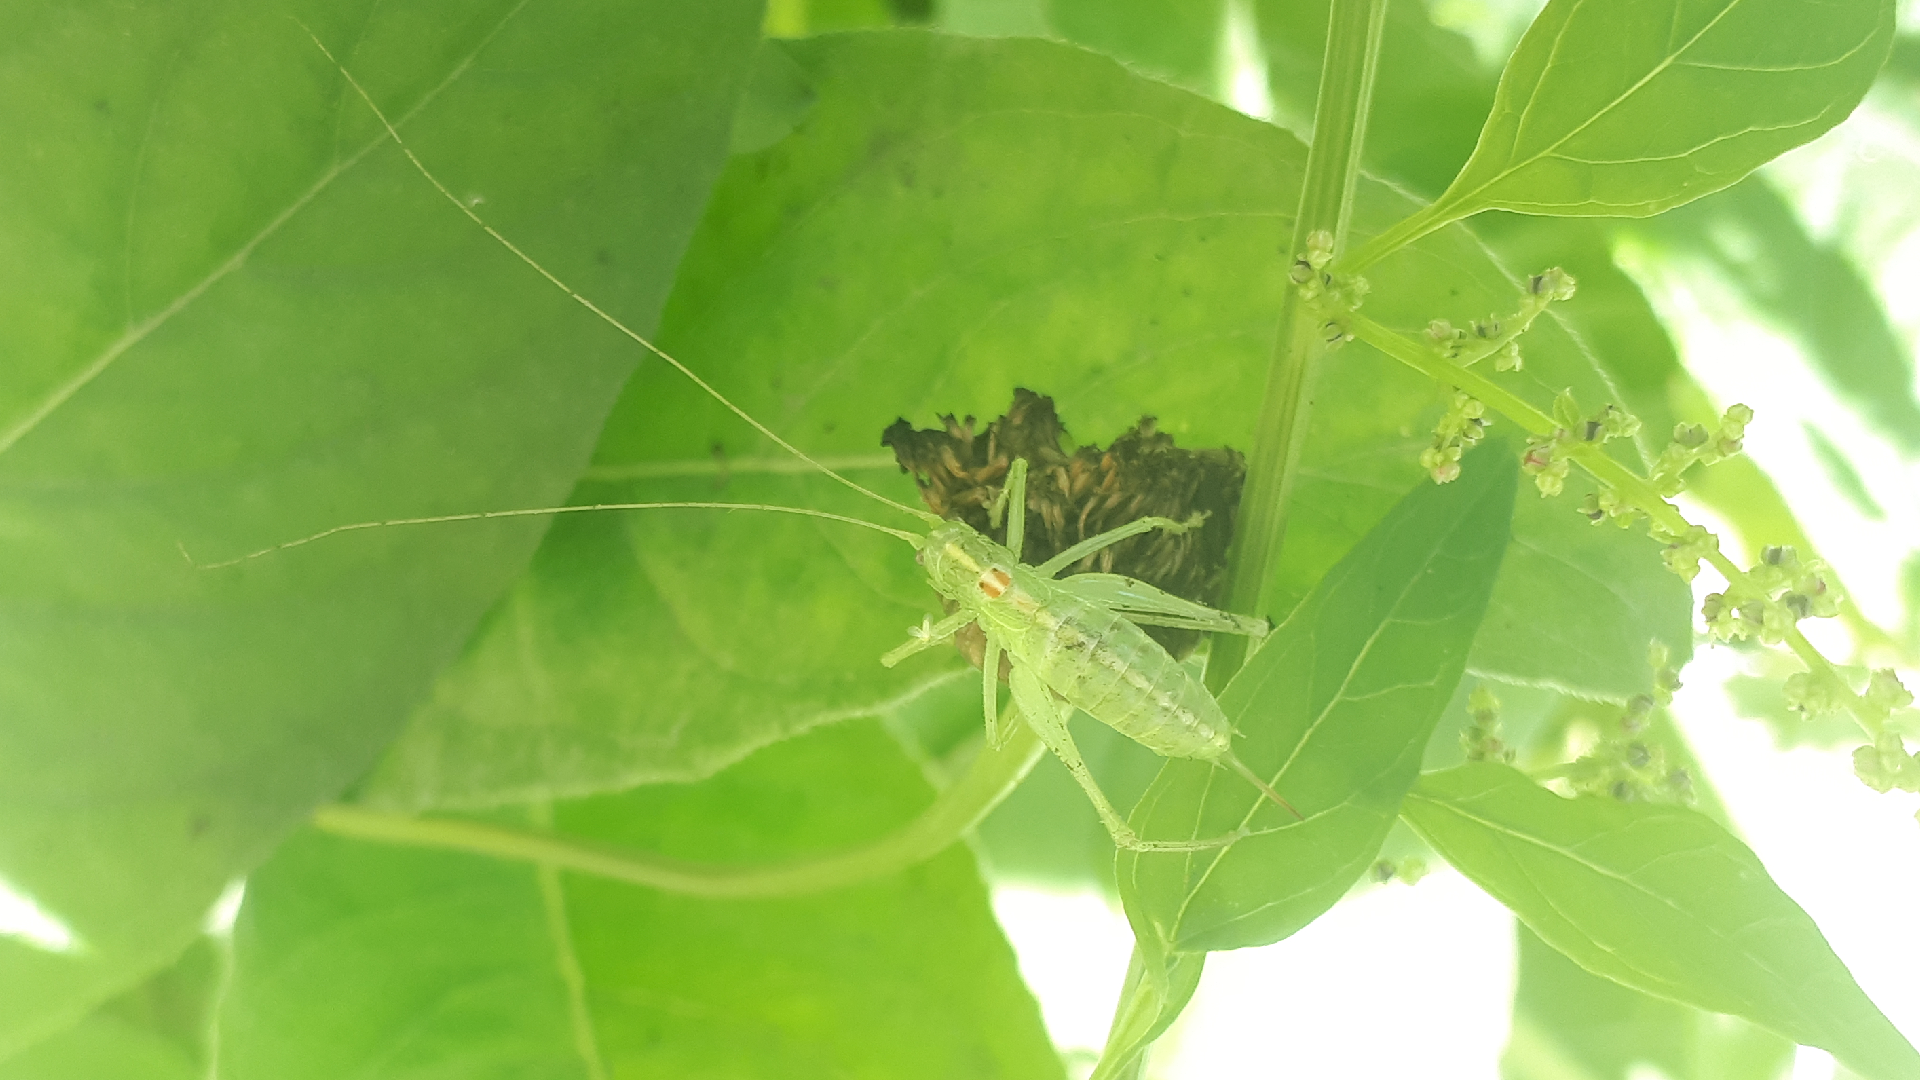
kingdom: Animalia
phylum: Arthropoda
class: Insecta
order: Orthoptera
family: Tettigoniidae
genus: Meconema
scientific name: Meconema meridionale
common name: Southern oak bush-cricket
